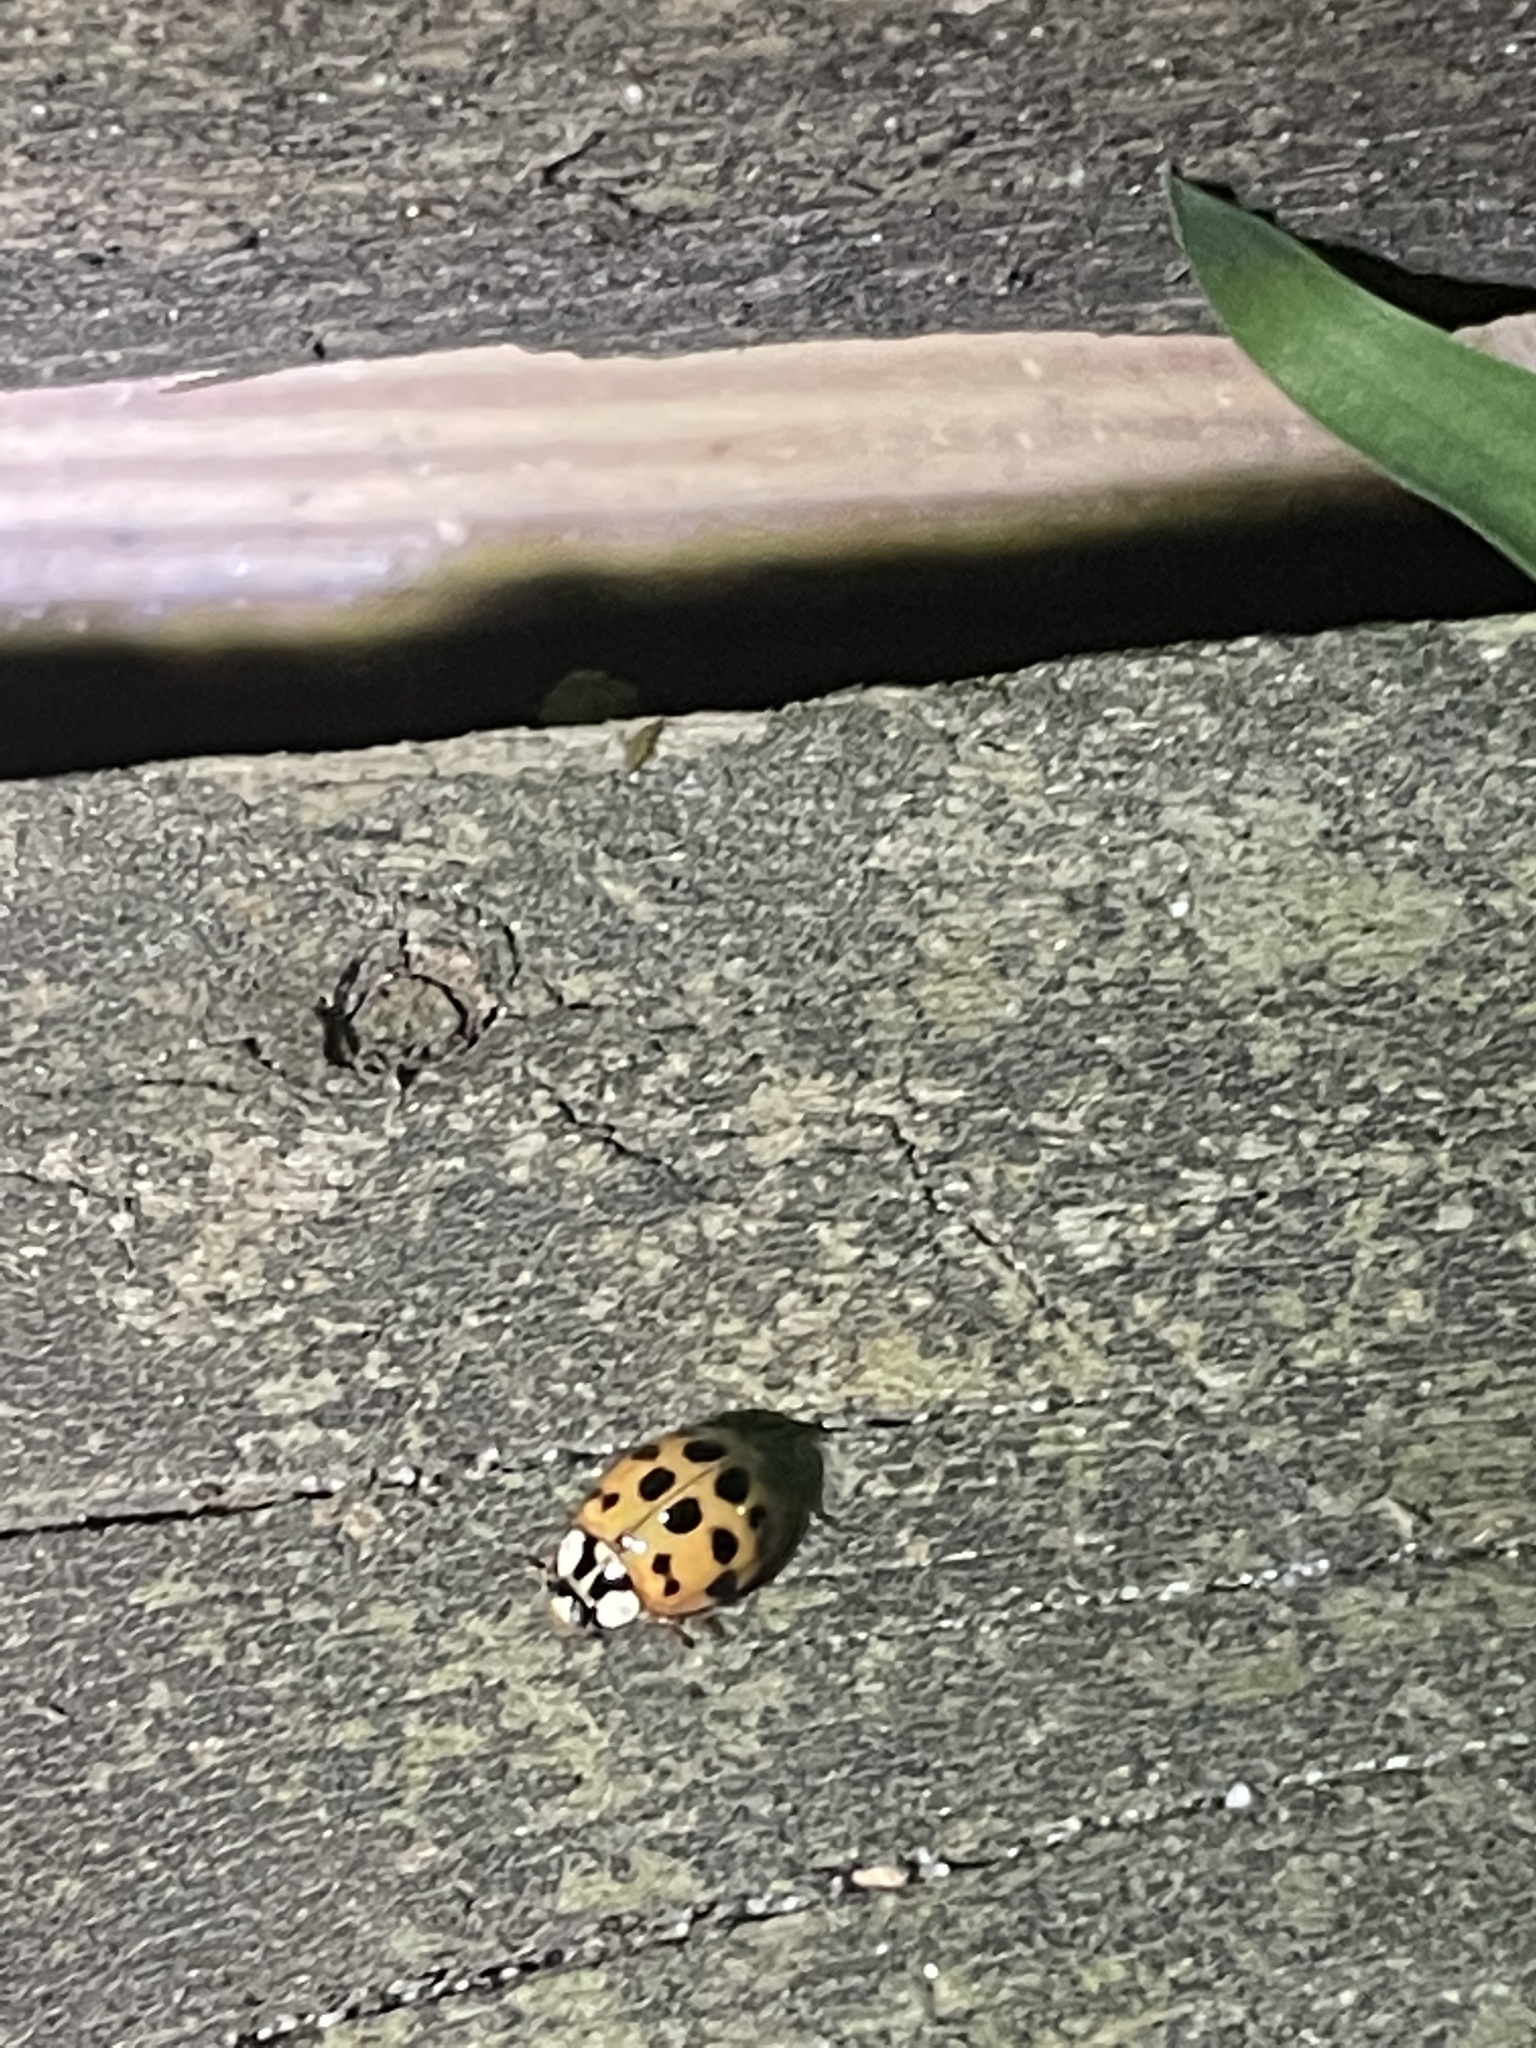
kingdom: Animalia
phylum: Arthropoda
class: Insecta
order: Coleoptera
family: Coccinellidae
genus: Harmonia
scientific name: Harmonia axyridis
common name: Harlequin ladybird
